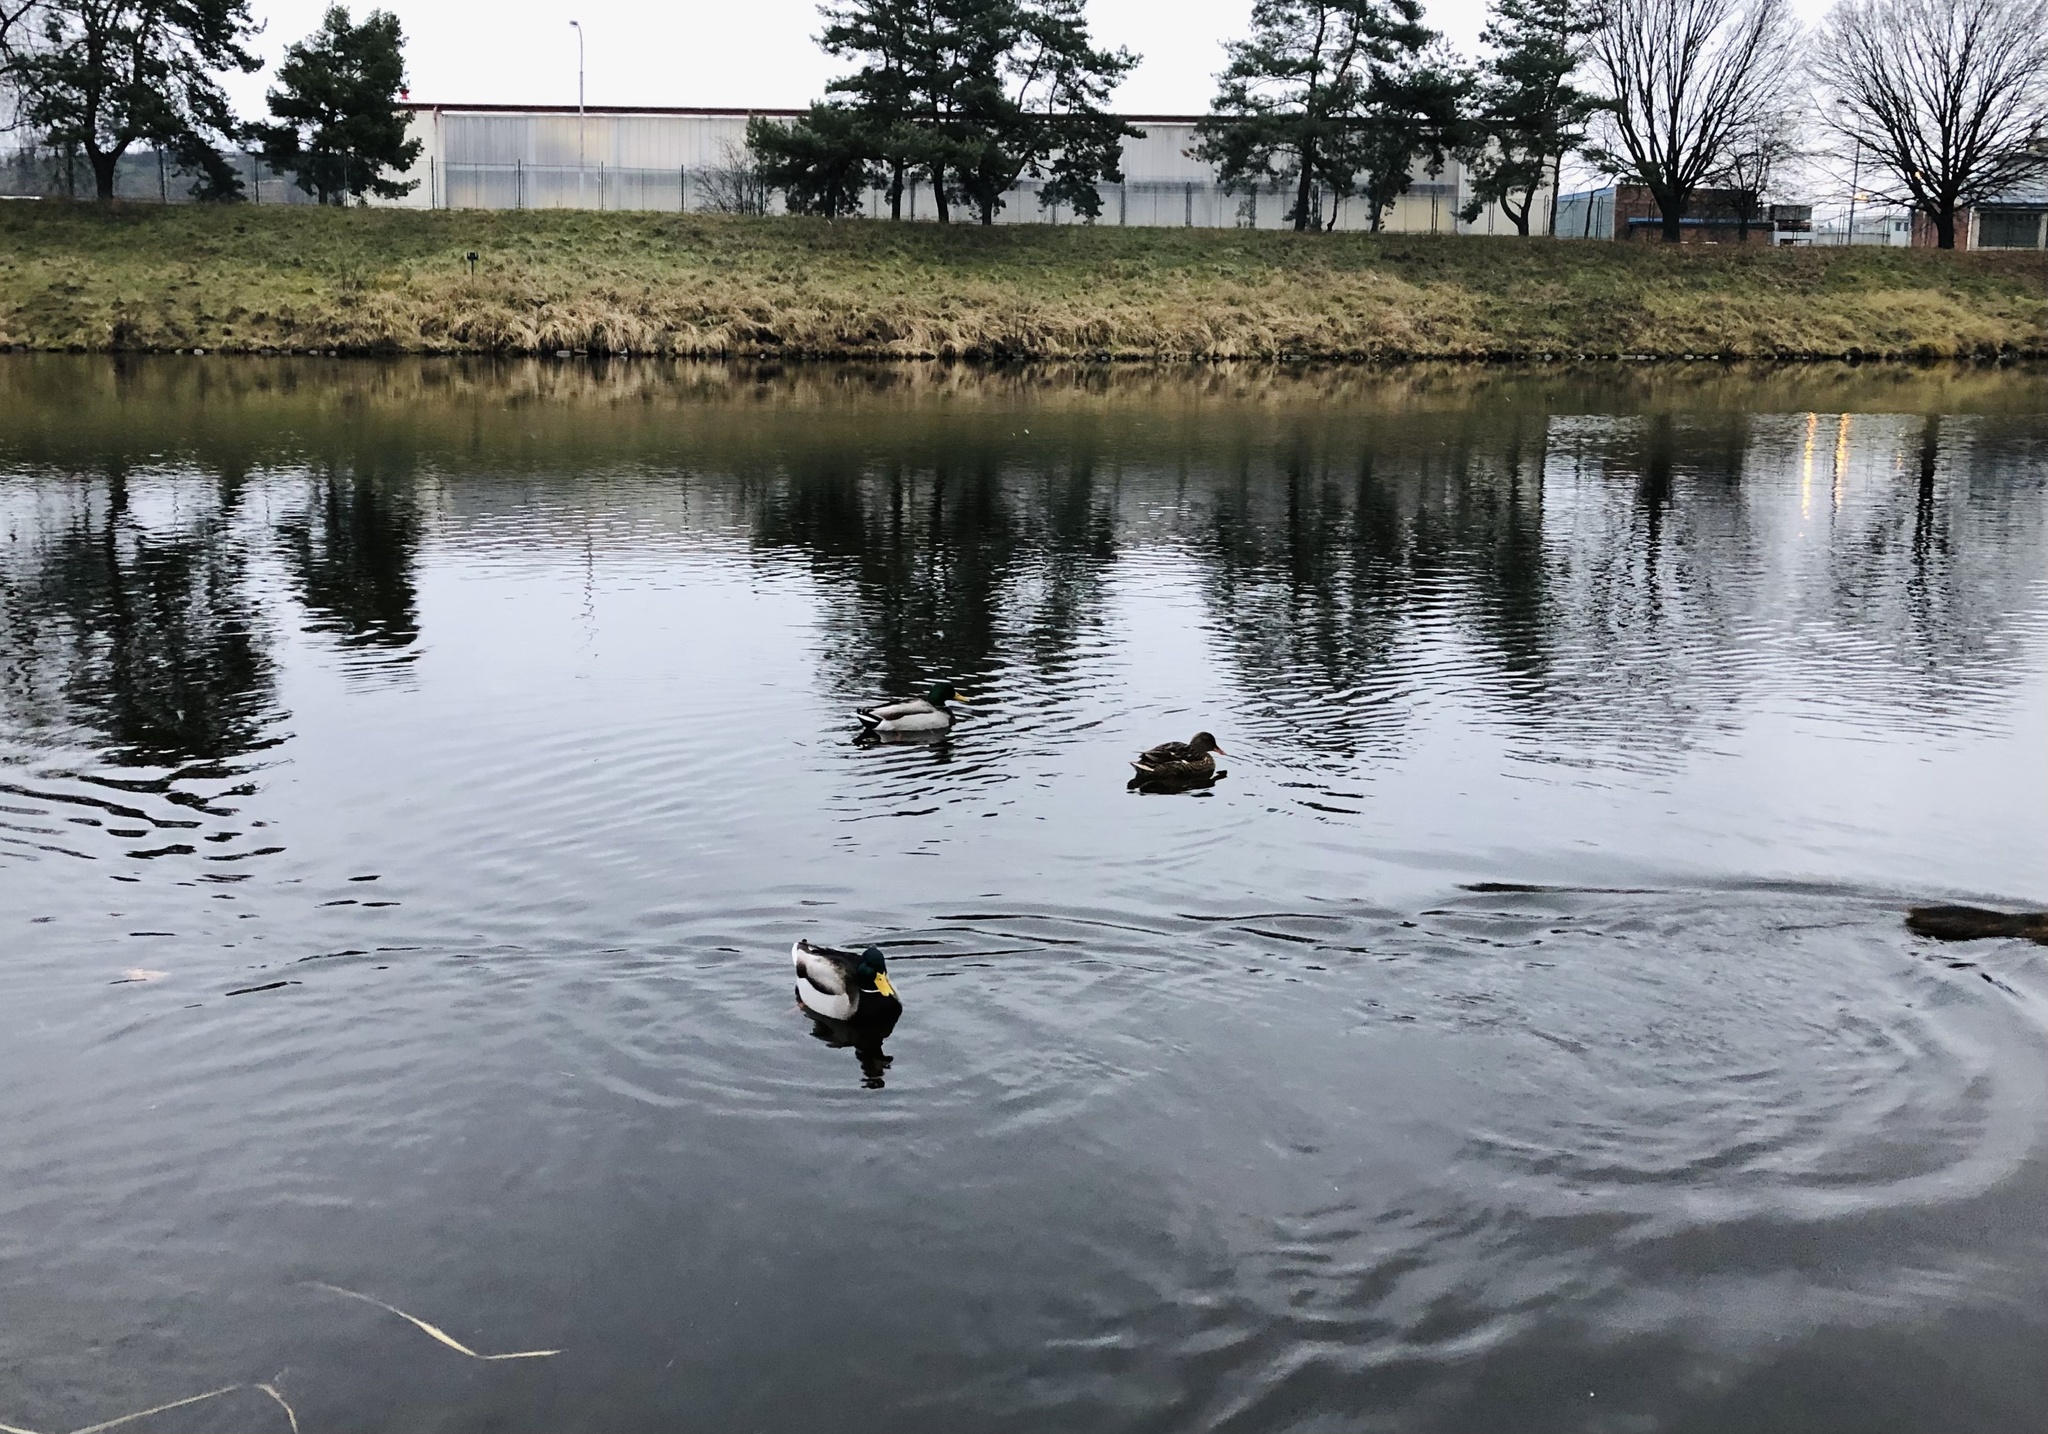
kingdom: Animalia
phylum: Chordata
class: Aves
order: Anseriformes
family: Anatidae
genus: Anas
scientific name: Anas platyrhynchos
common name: Mallard
